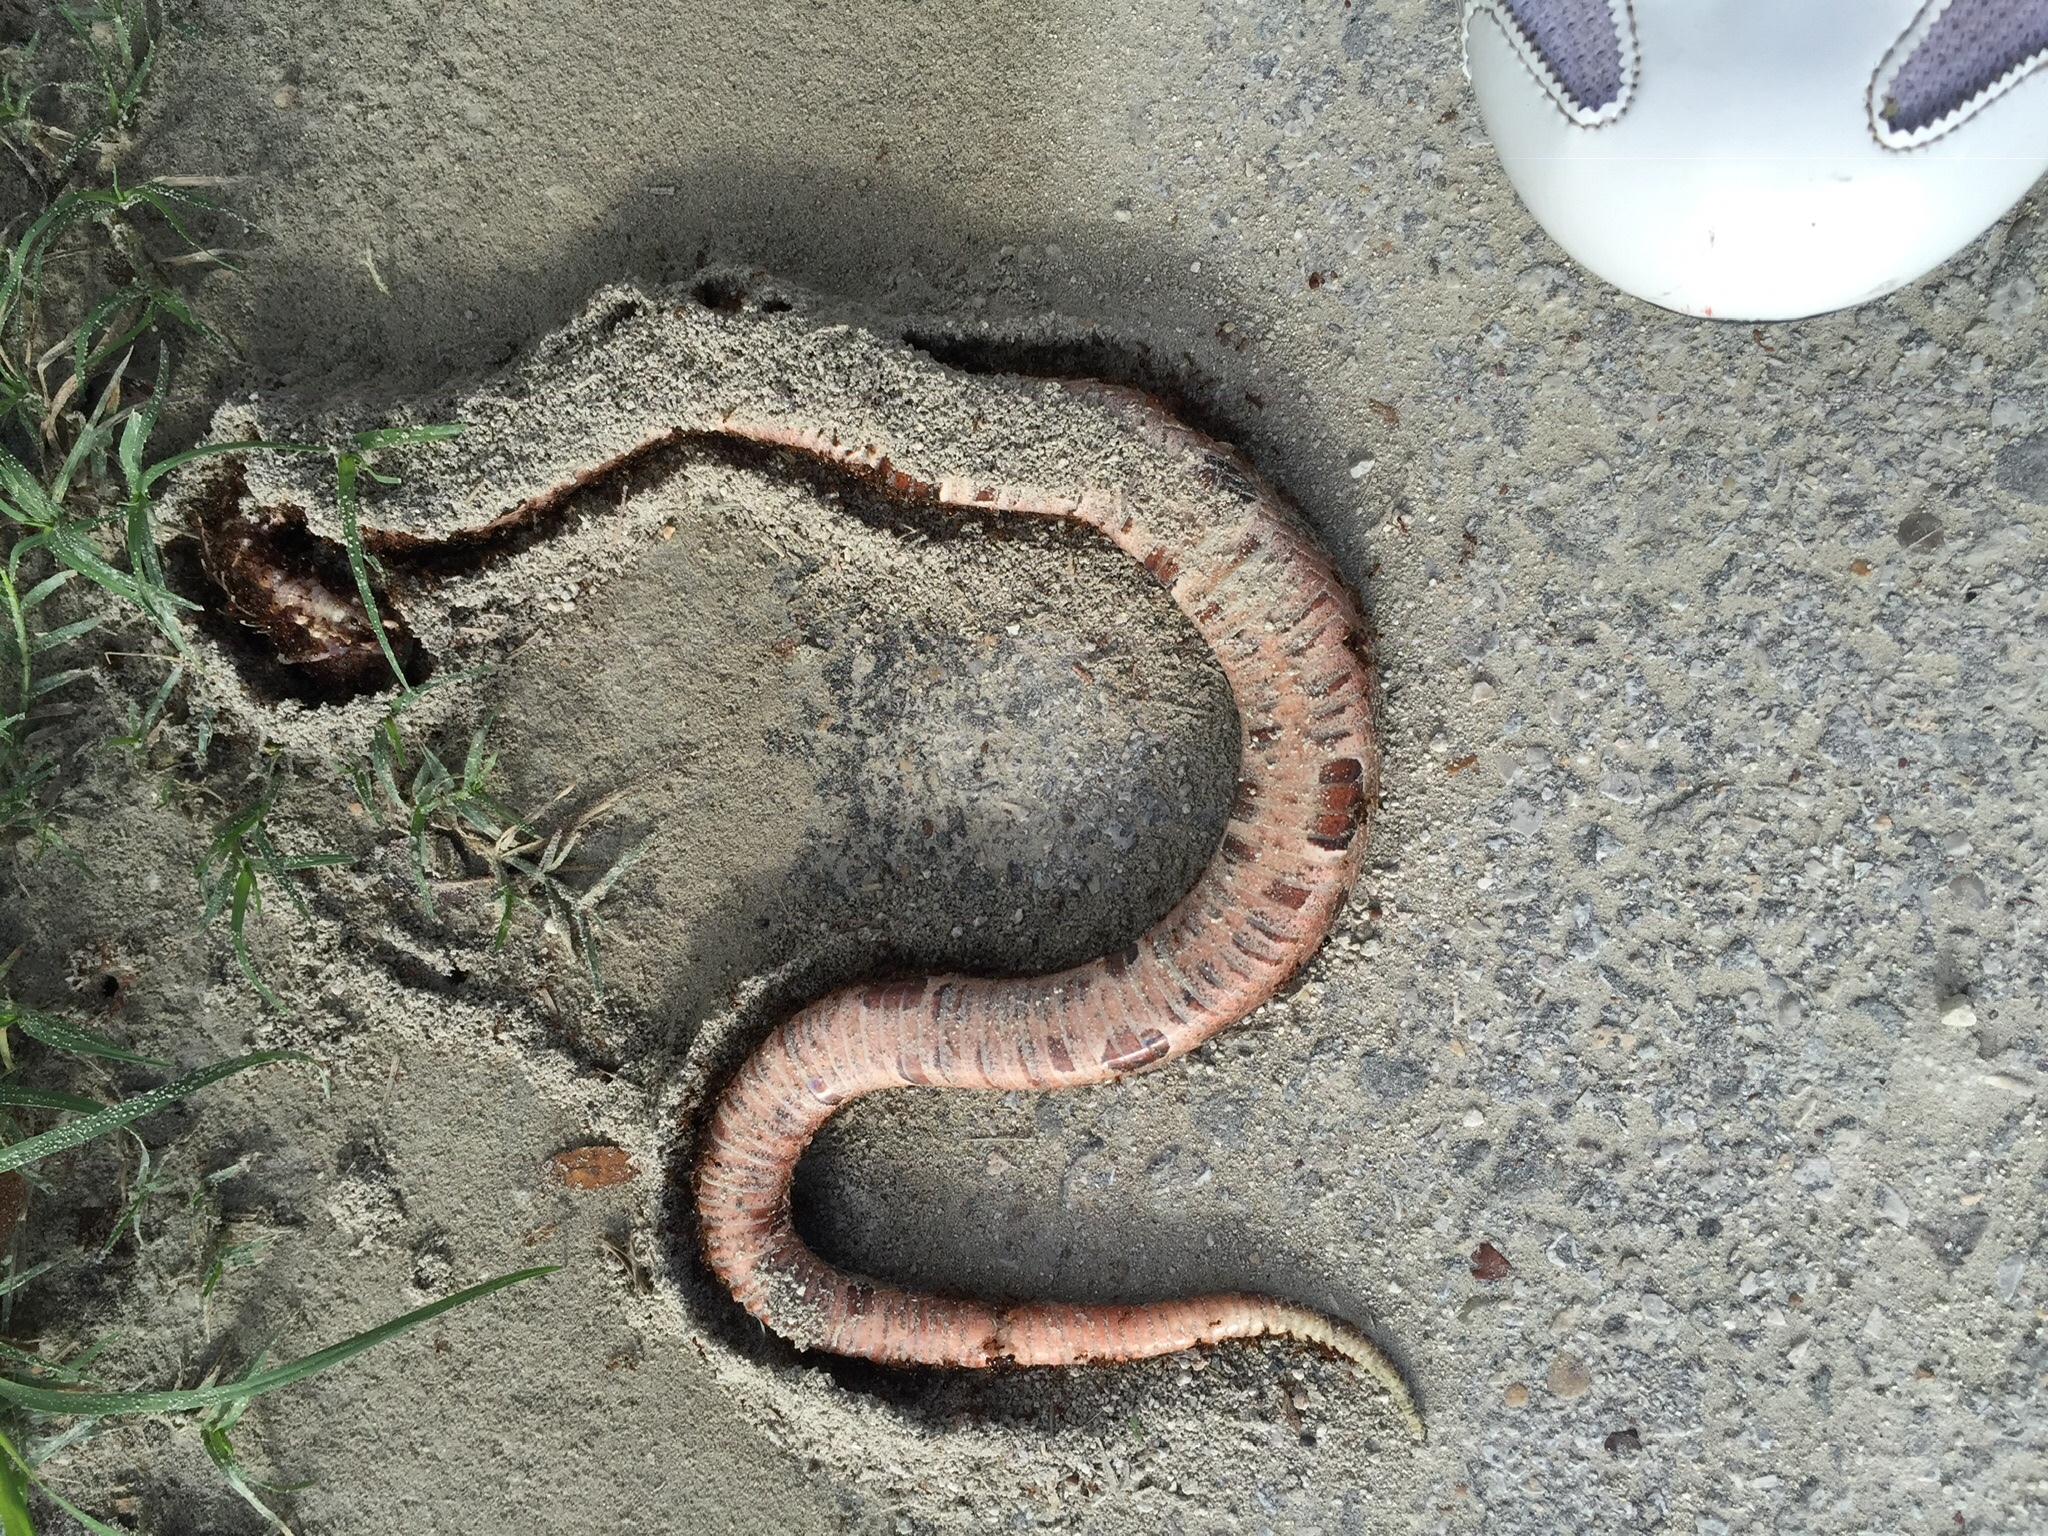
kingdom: Animalia
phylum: Chordata
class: Squamata
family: Viperidae
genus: Agkistrodon
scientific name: Agkistrodon contortrix
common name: Northern copperhead
